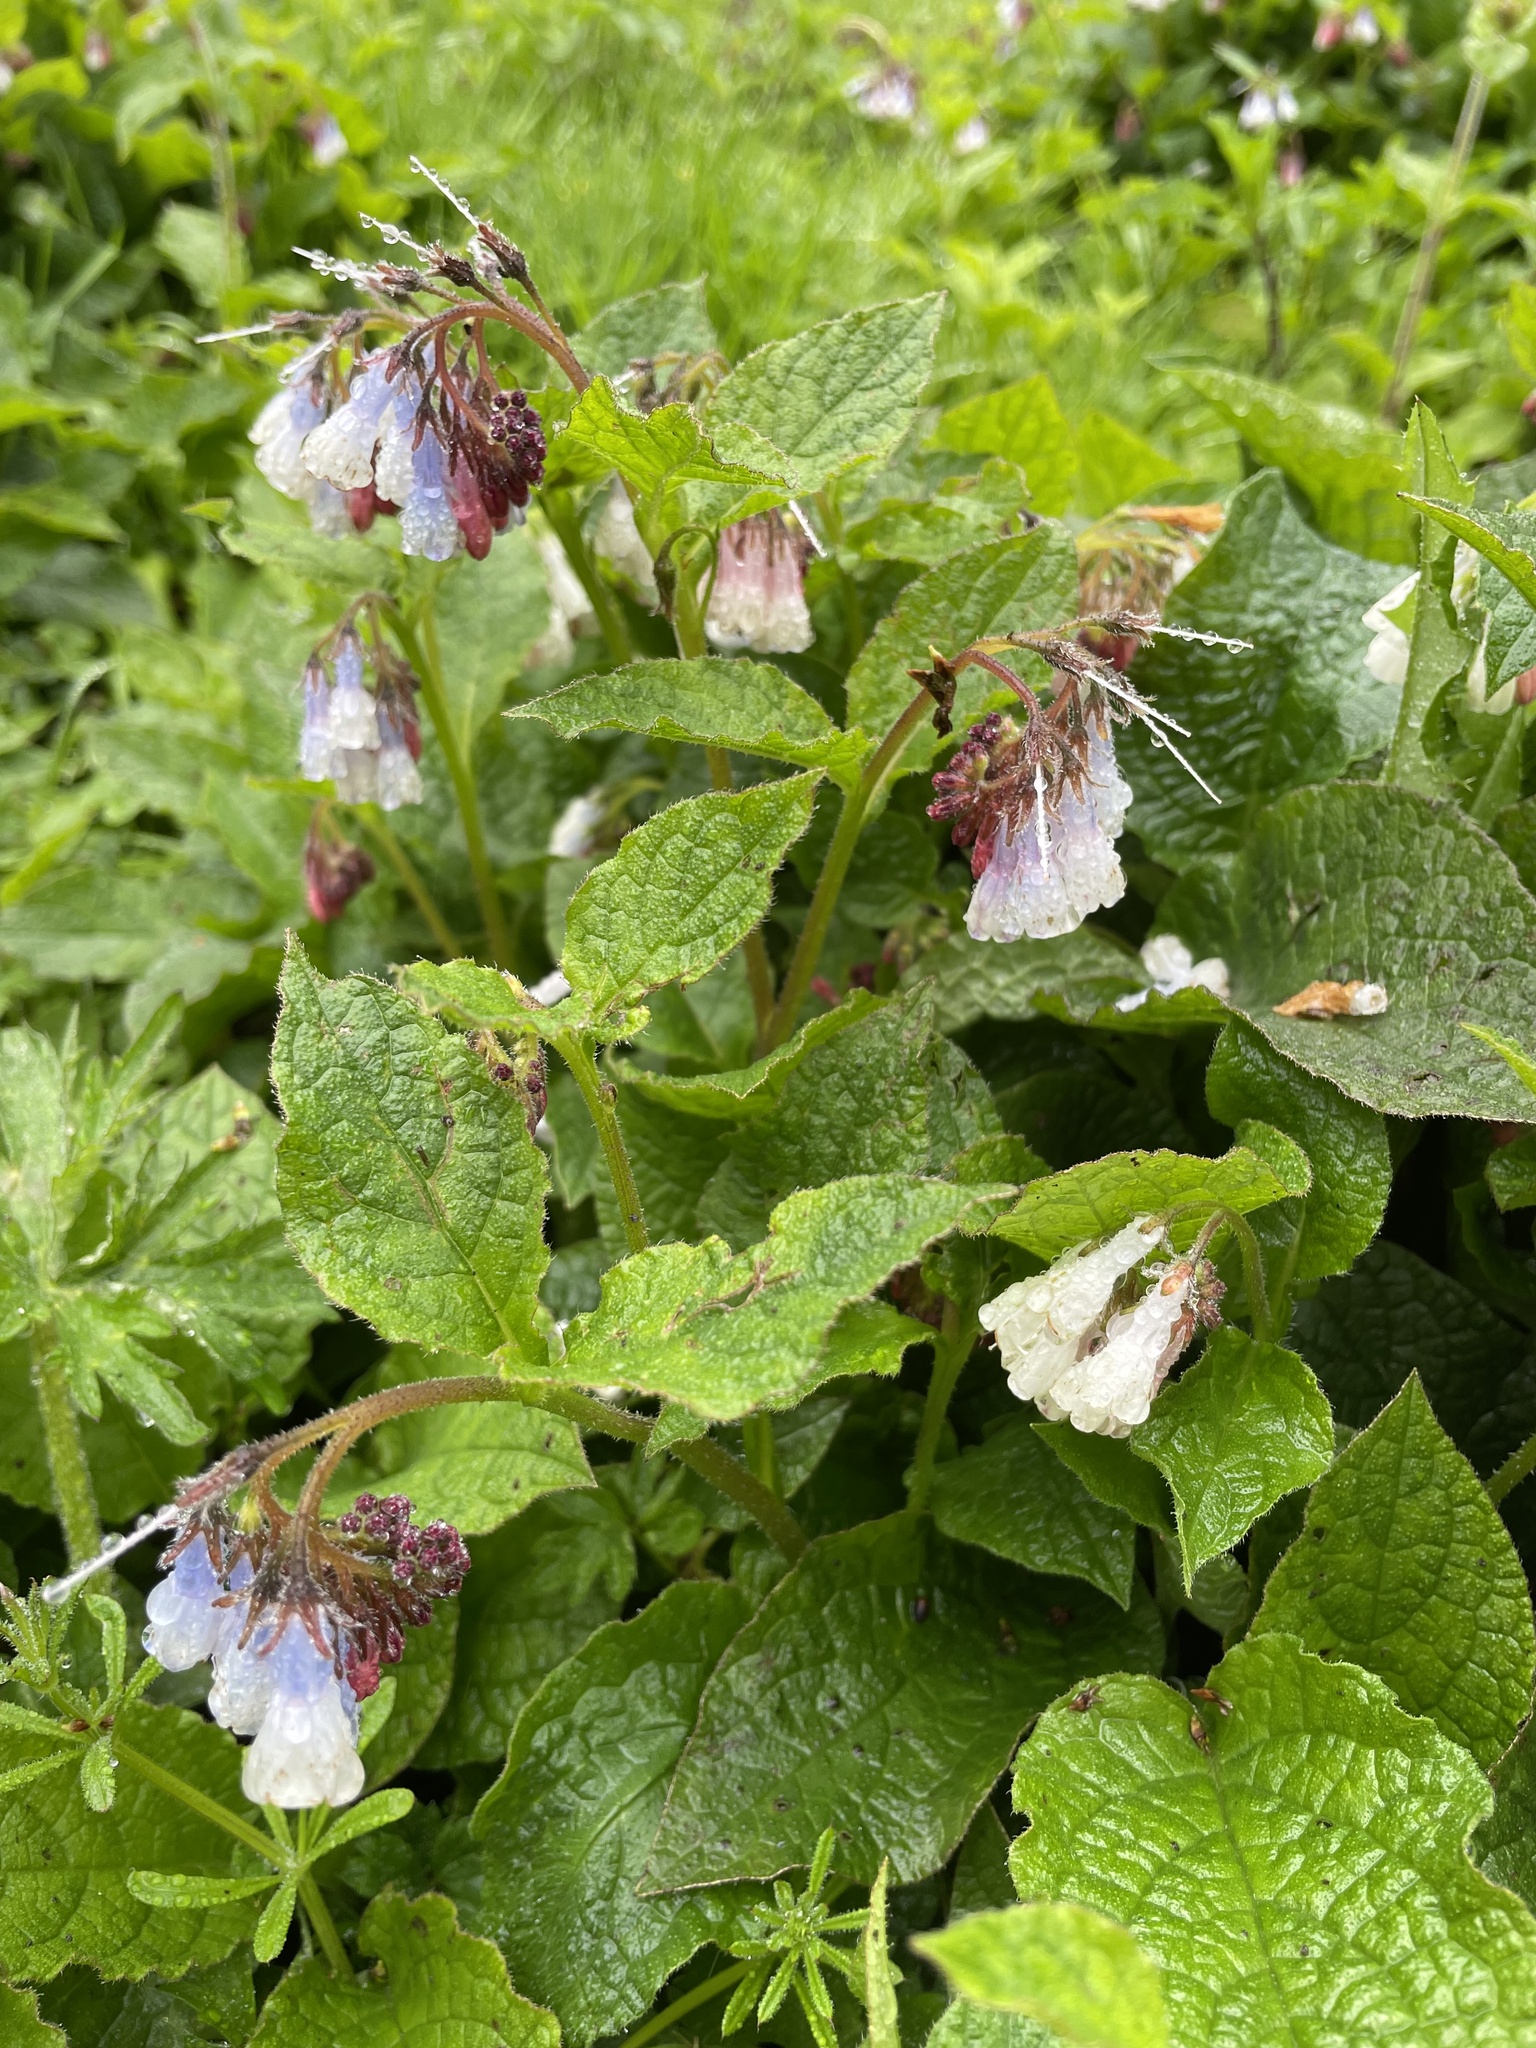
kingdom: Plantae
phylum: Tracheophyta
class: Magnoliopsida
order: Boraginales
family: Boraginaceae
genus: Symphytum
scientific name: Symphytum hidcotense
